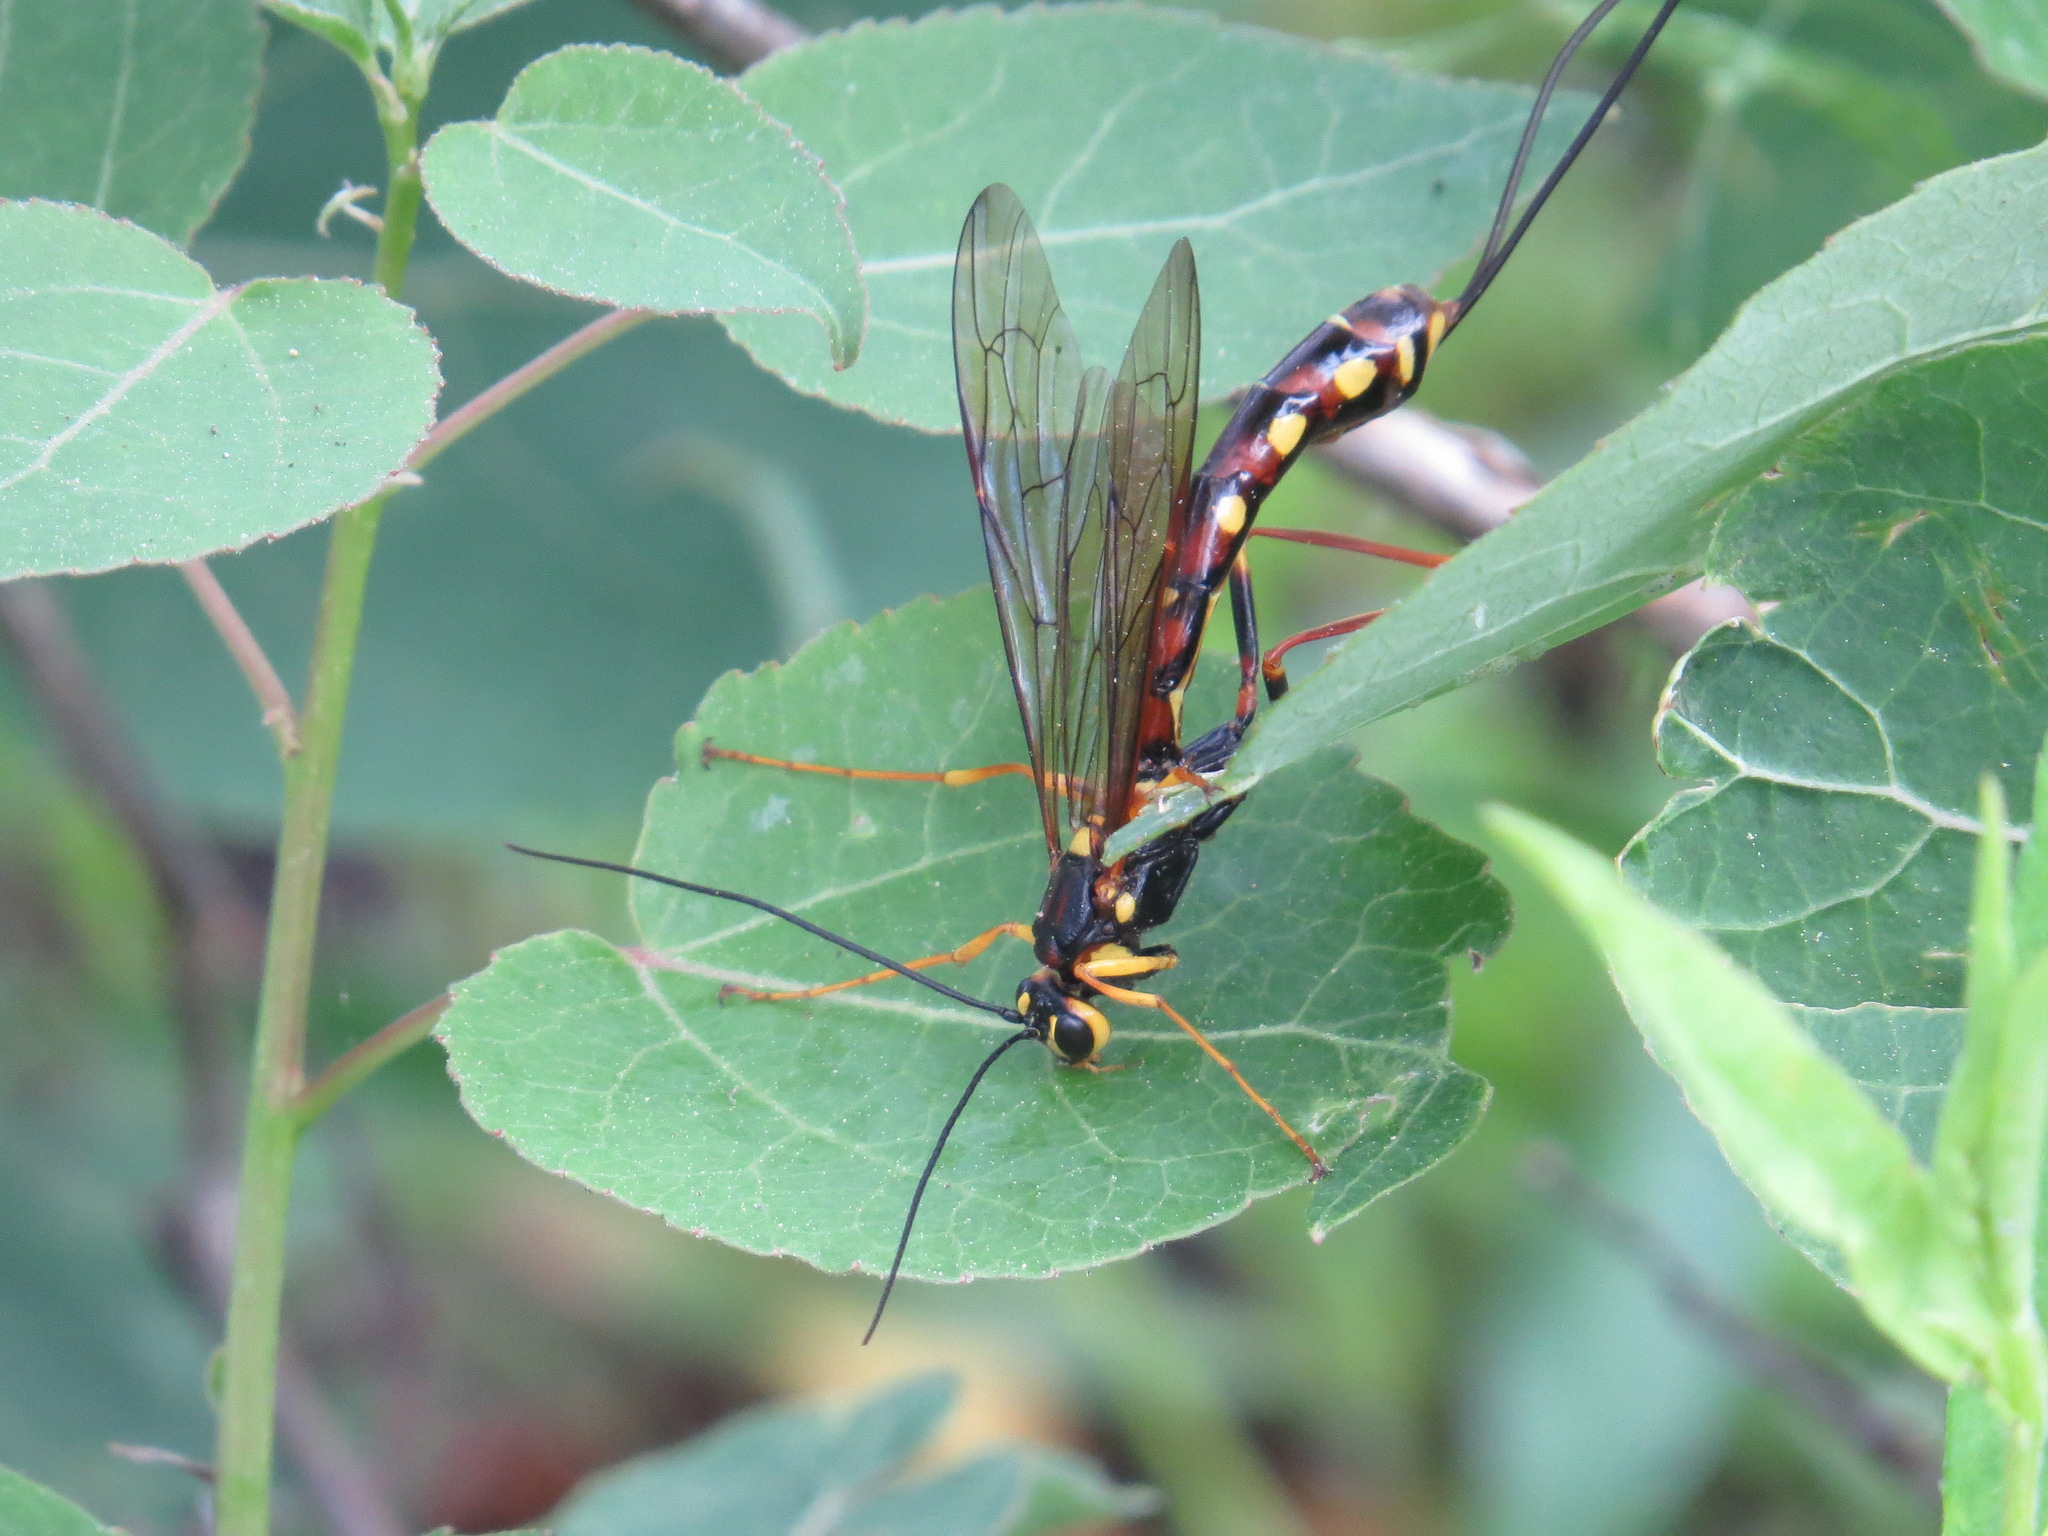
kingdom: Animalia
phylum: Arthropoda
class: Insecta
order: Hymenoptera
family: Ichneumonidae
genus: Megarhyssa
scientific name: Megarhyssa nortoni
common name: Norton's giant ichneumonid wasp
